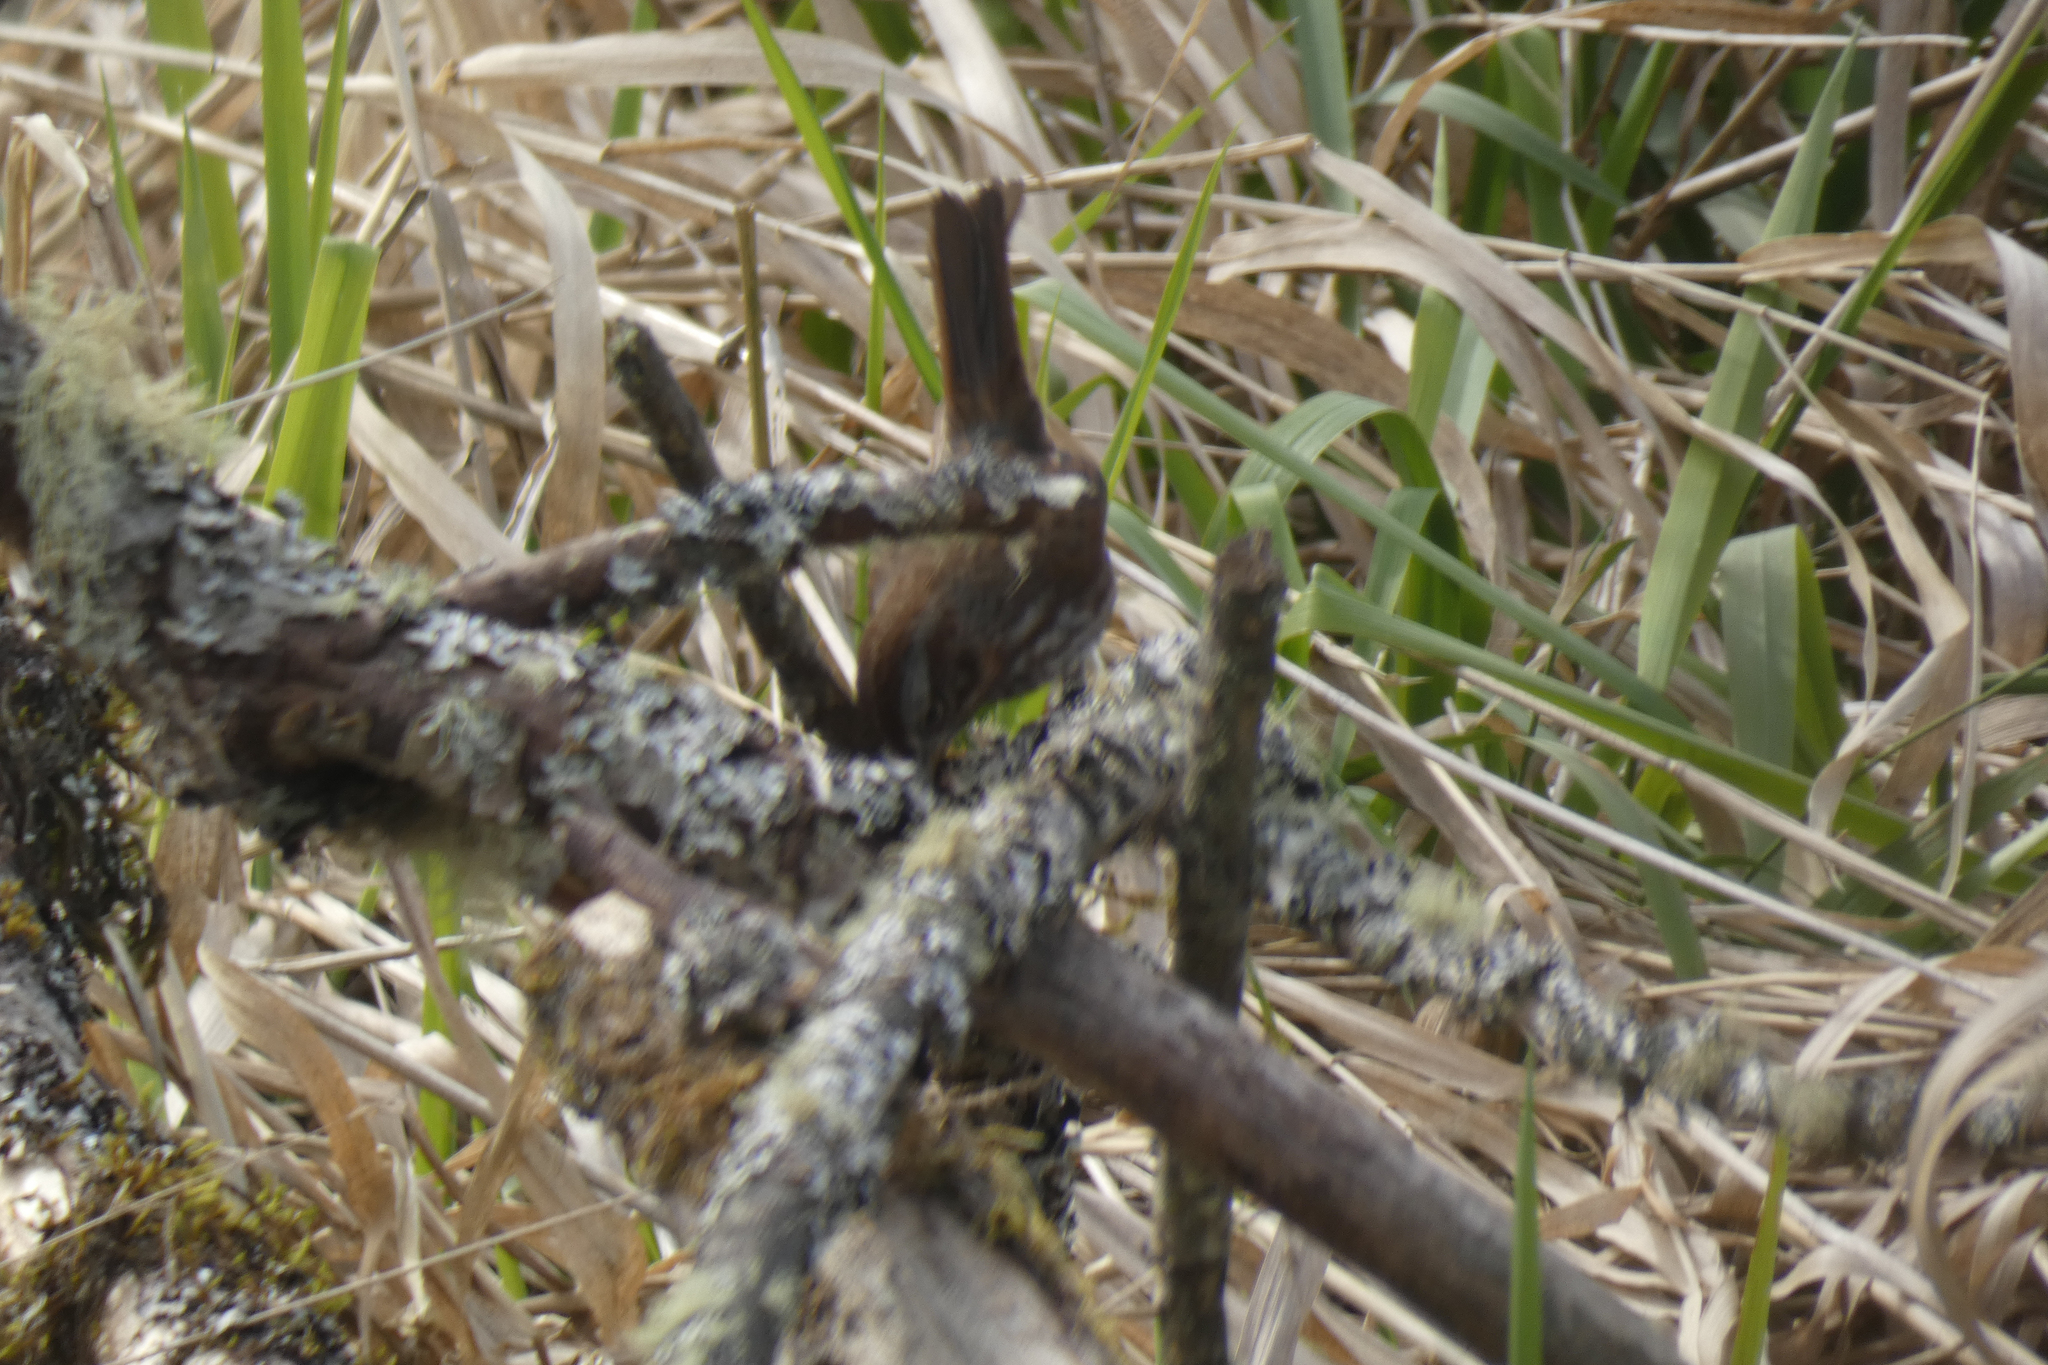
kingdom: Animalia
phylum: Chordata
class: Aves
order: Passeriformes
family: Passerellidae
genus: Melospiza
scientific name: Melospiza melodia
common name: Song sparrow
